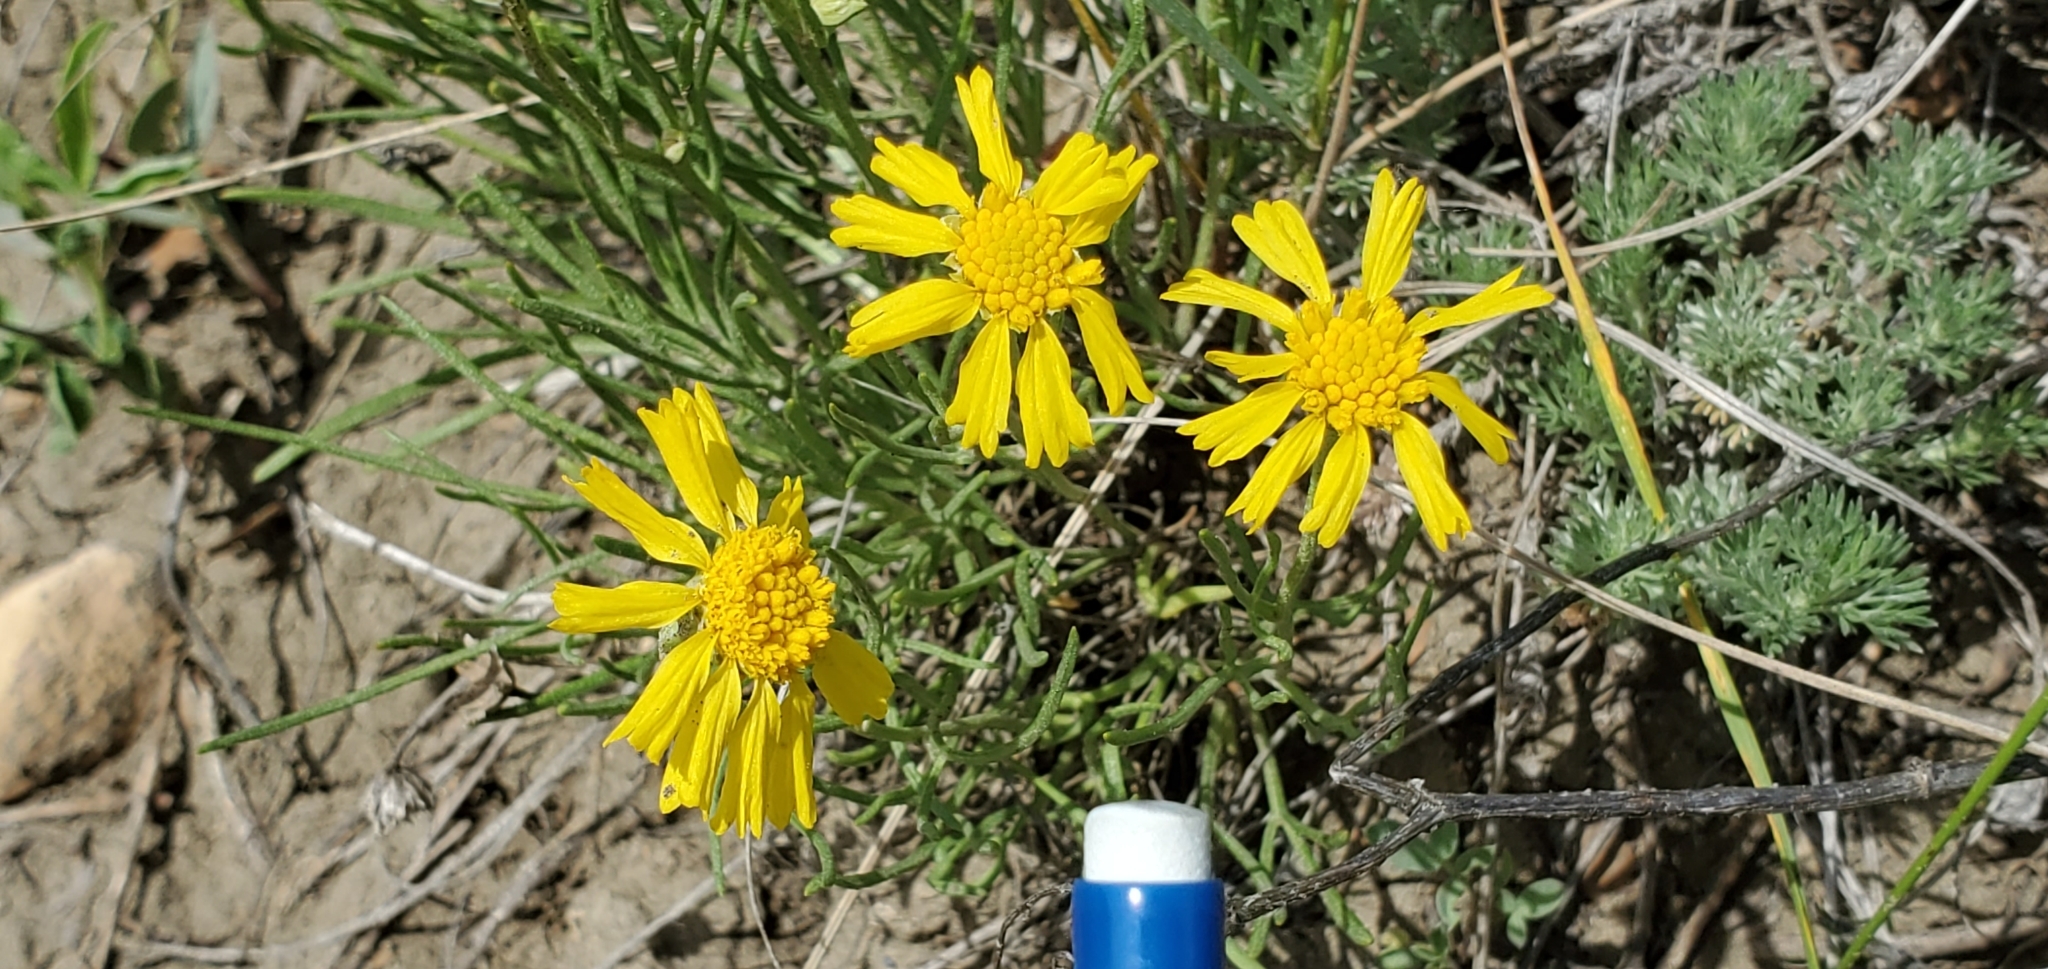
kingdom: Plantae
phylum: Tracheophyta
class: Magnoliopsida
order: Asterales
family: Asteraceae
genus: Hymenoxys
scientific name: Hymenoxys richardsonii
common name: Pingue rubberweed
